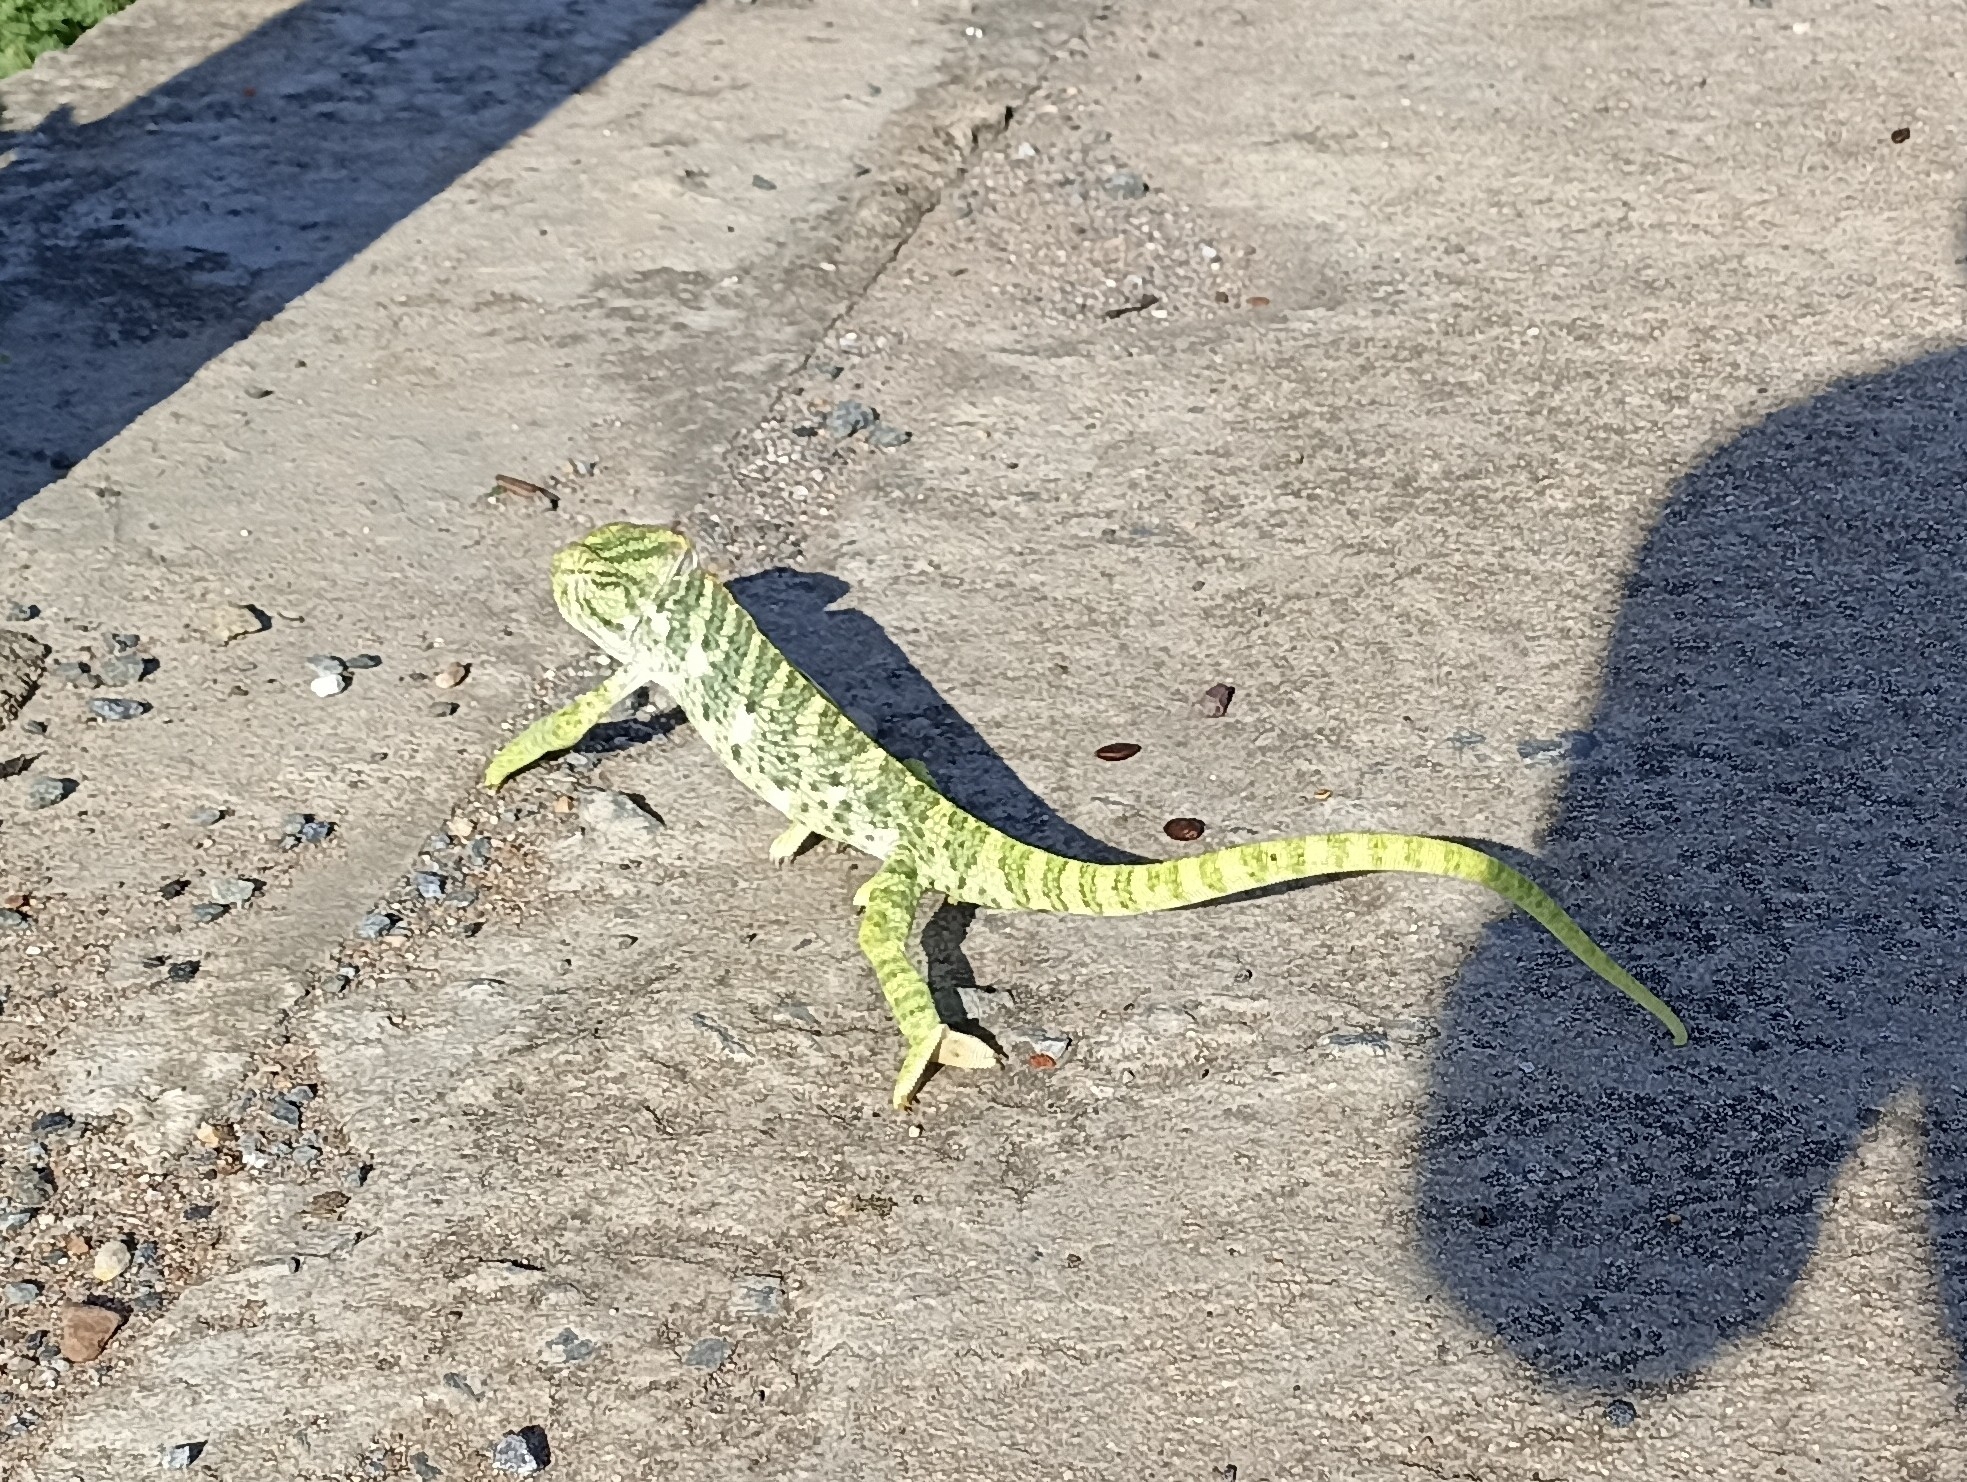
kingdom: Animalia
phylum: Chordata
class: Squamata
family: Chamaeleonidae
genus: Chamaeleo
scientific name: Chamaeleo zeylanicus
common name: Indian chameleon
